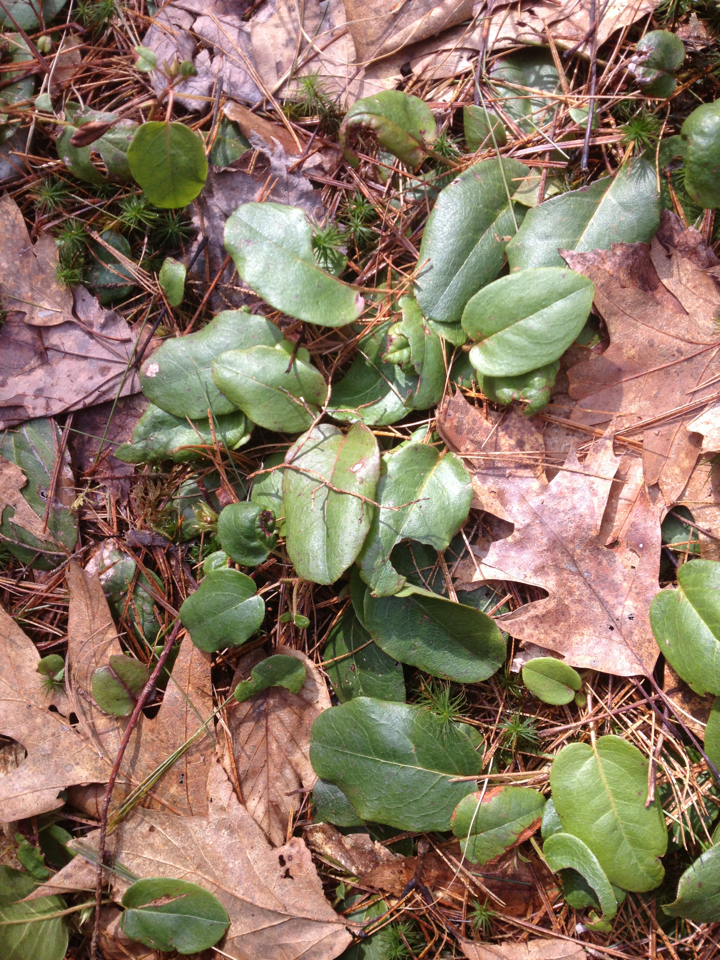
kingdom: Plantae
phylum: Tracheophyta
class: Magnoliopsida
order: Ericales
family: Ericaceae
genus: Epigaea
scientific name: Epigaea repens
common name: Gravelroot
